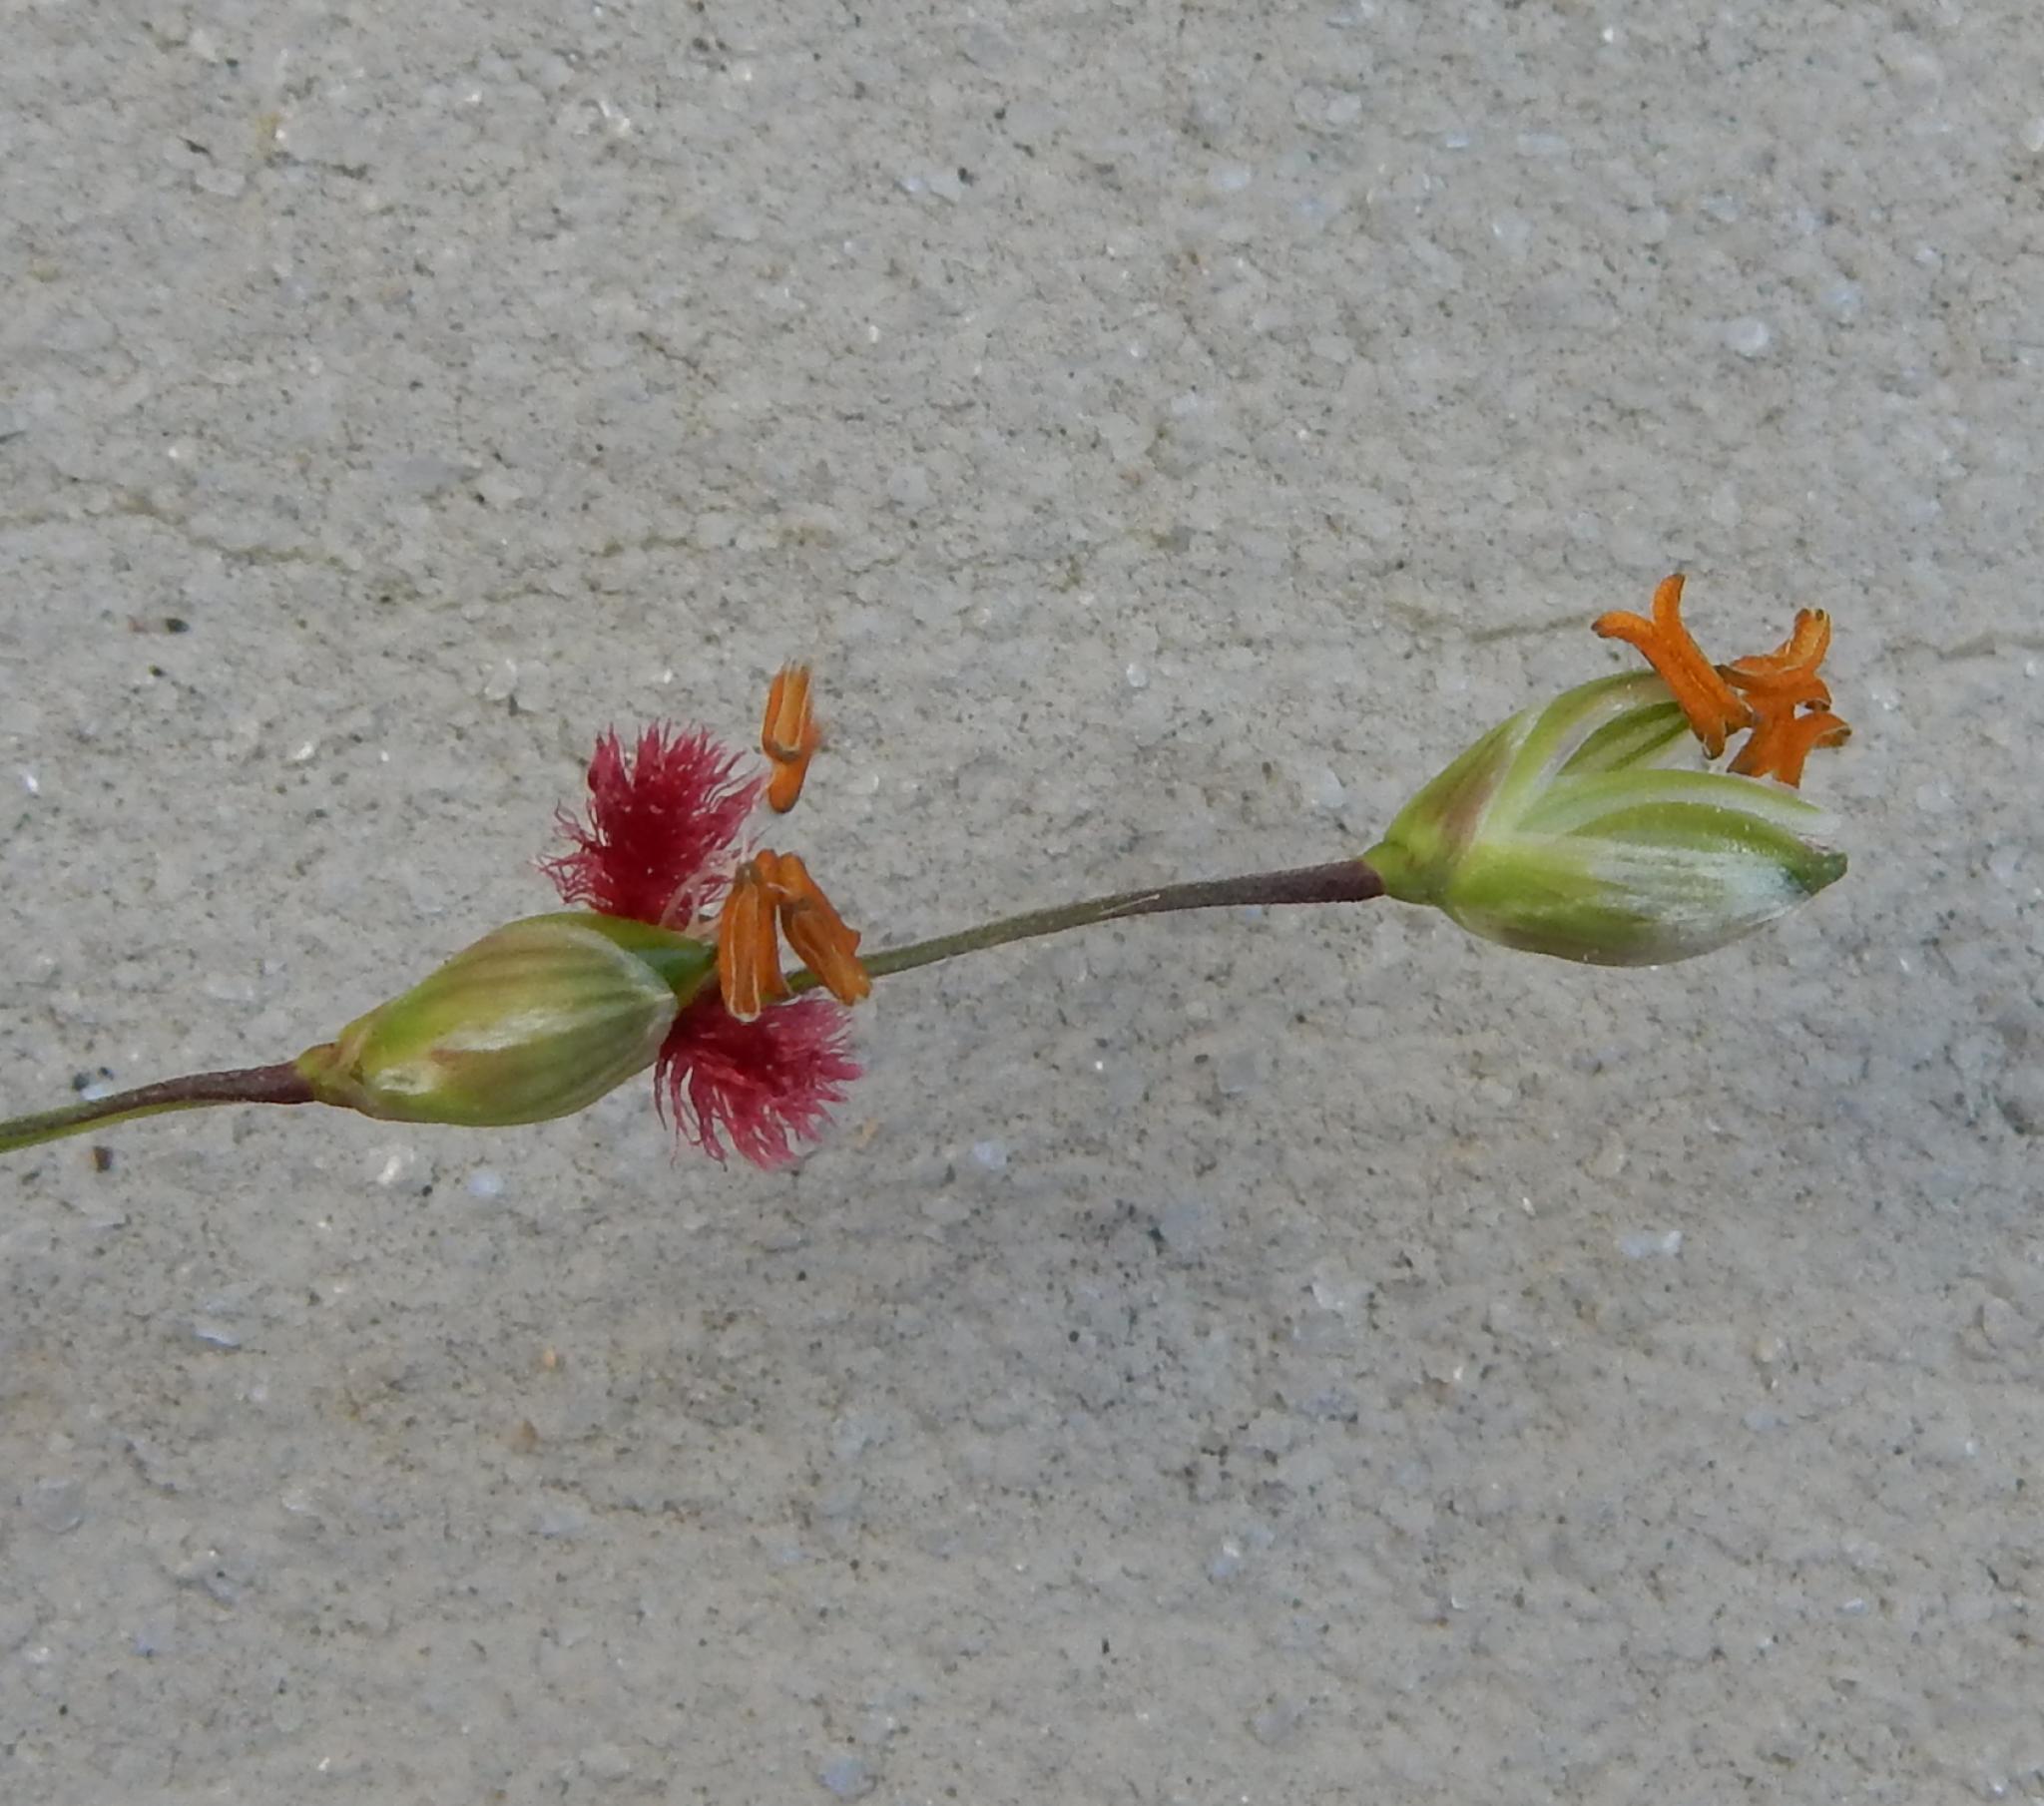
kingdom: Plantae
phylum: Tracheophyta
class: Liliopsida
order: Poales
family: Poaceae
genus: Panicum
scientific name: Panicum deustum
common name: Reed panicum
